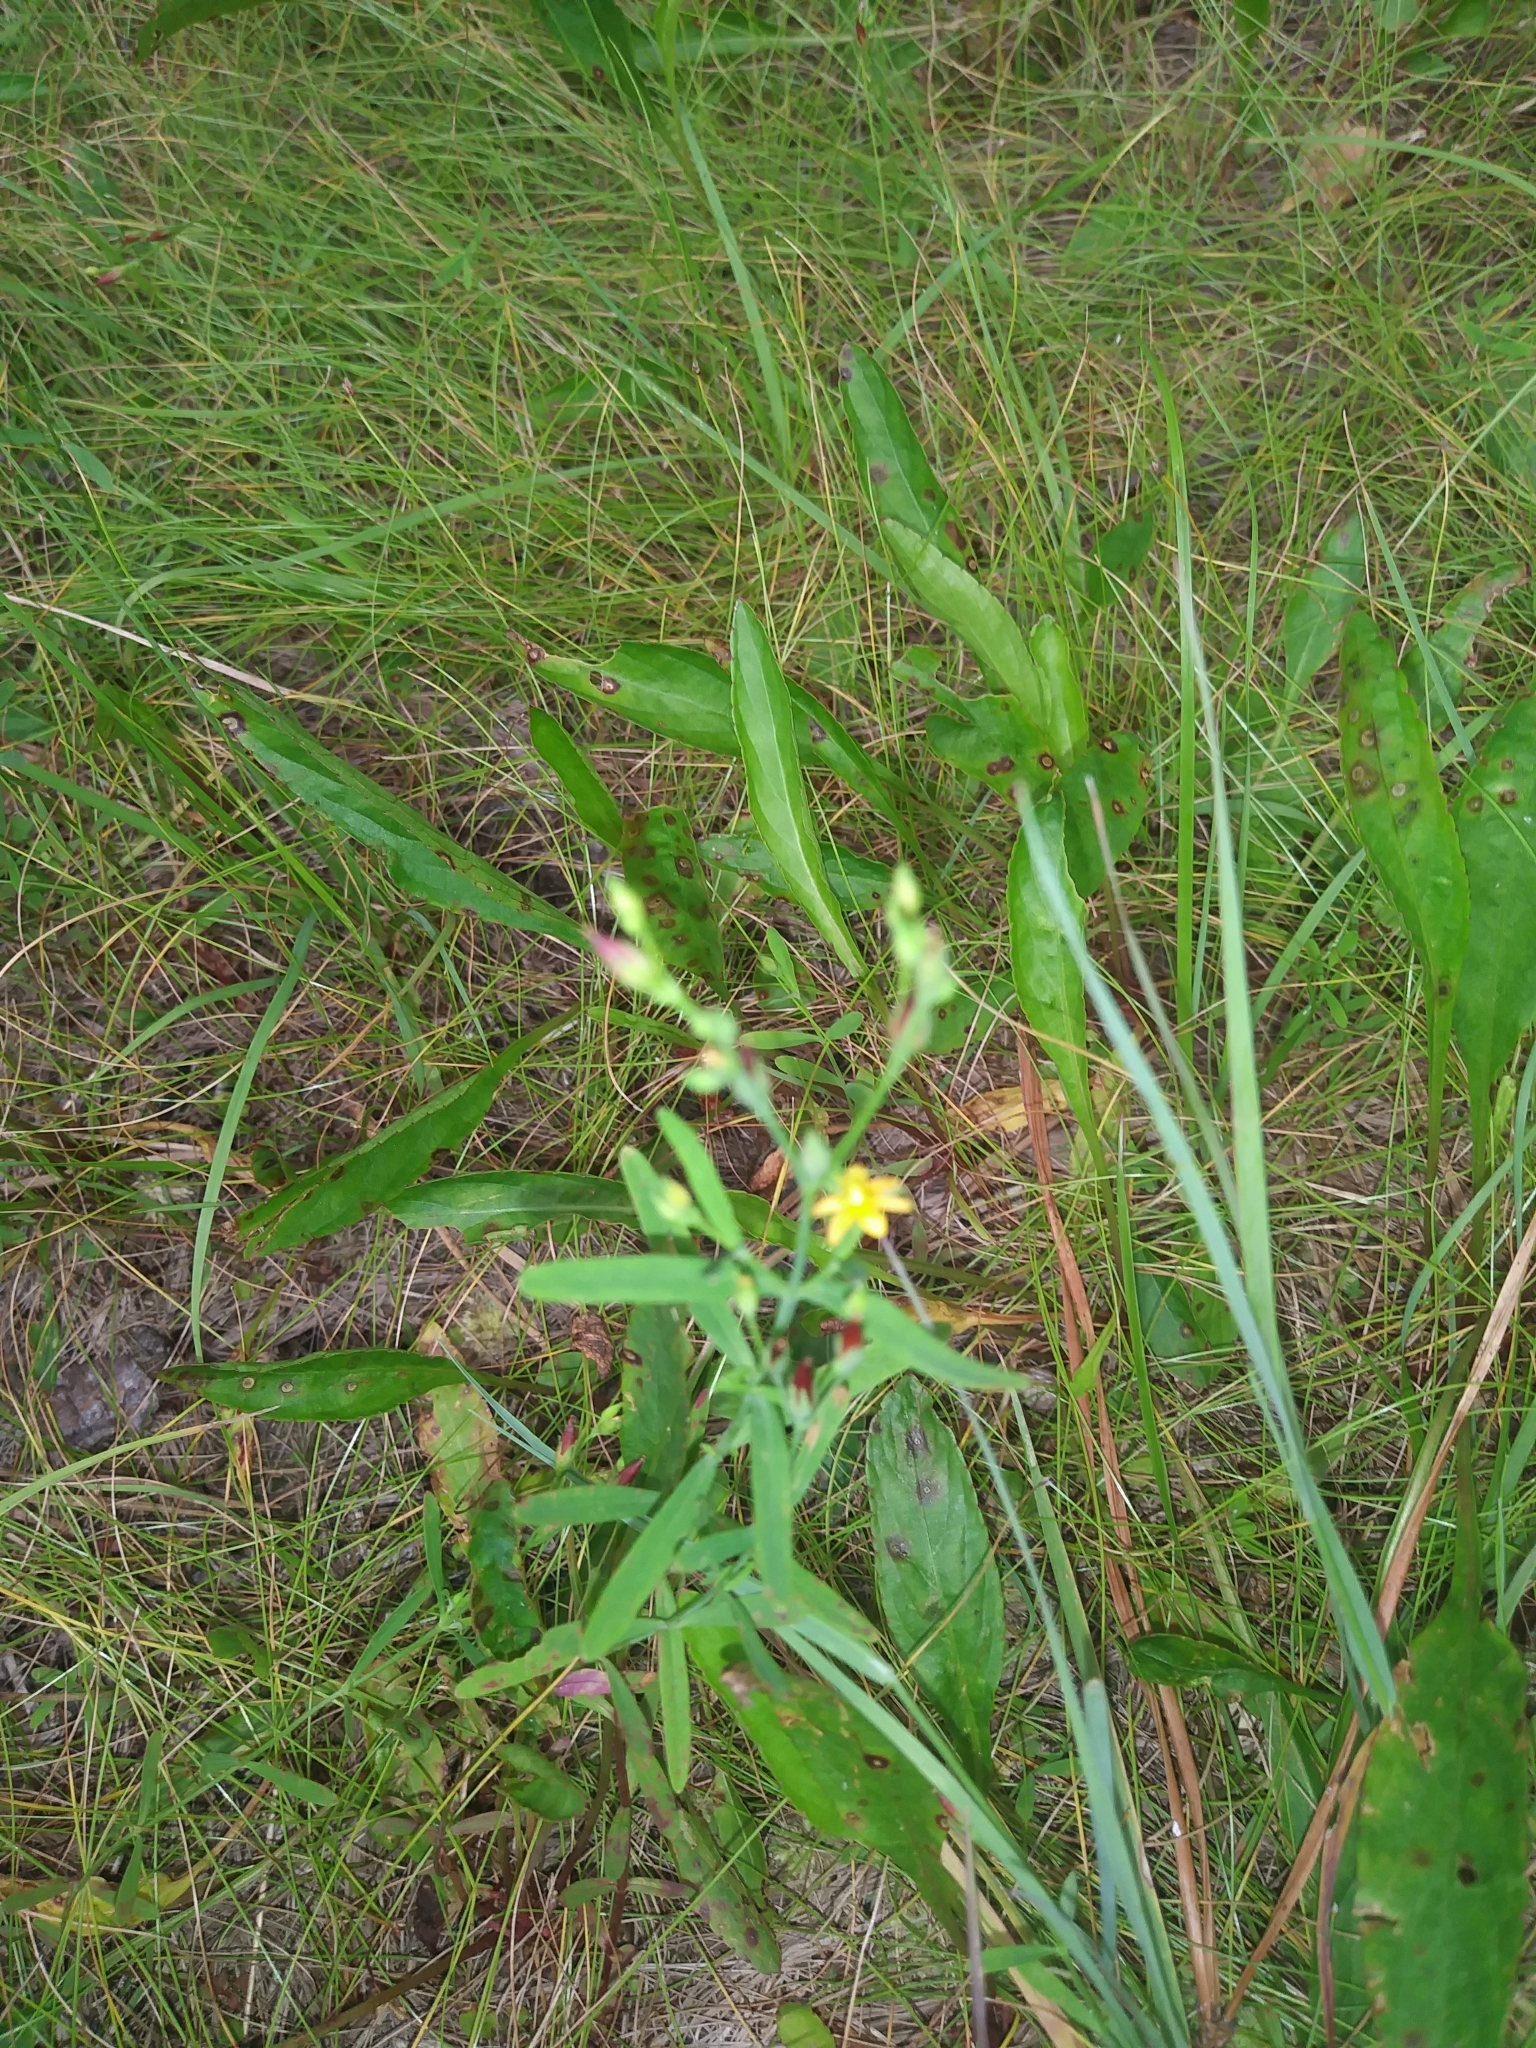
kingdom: Plantae
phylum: Tracheophyta
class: Magnoliopsida
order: Malpighiales
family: Hypericaceae
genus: Hypericum
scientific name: Hypericum canadense
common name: Irish st. john's-wort
